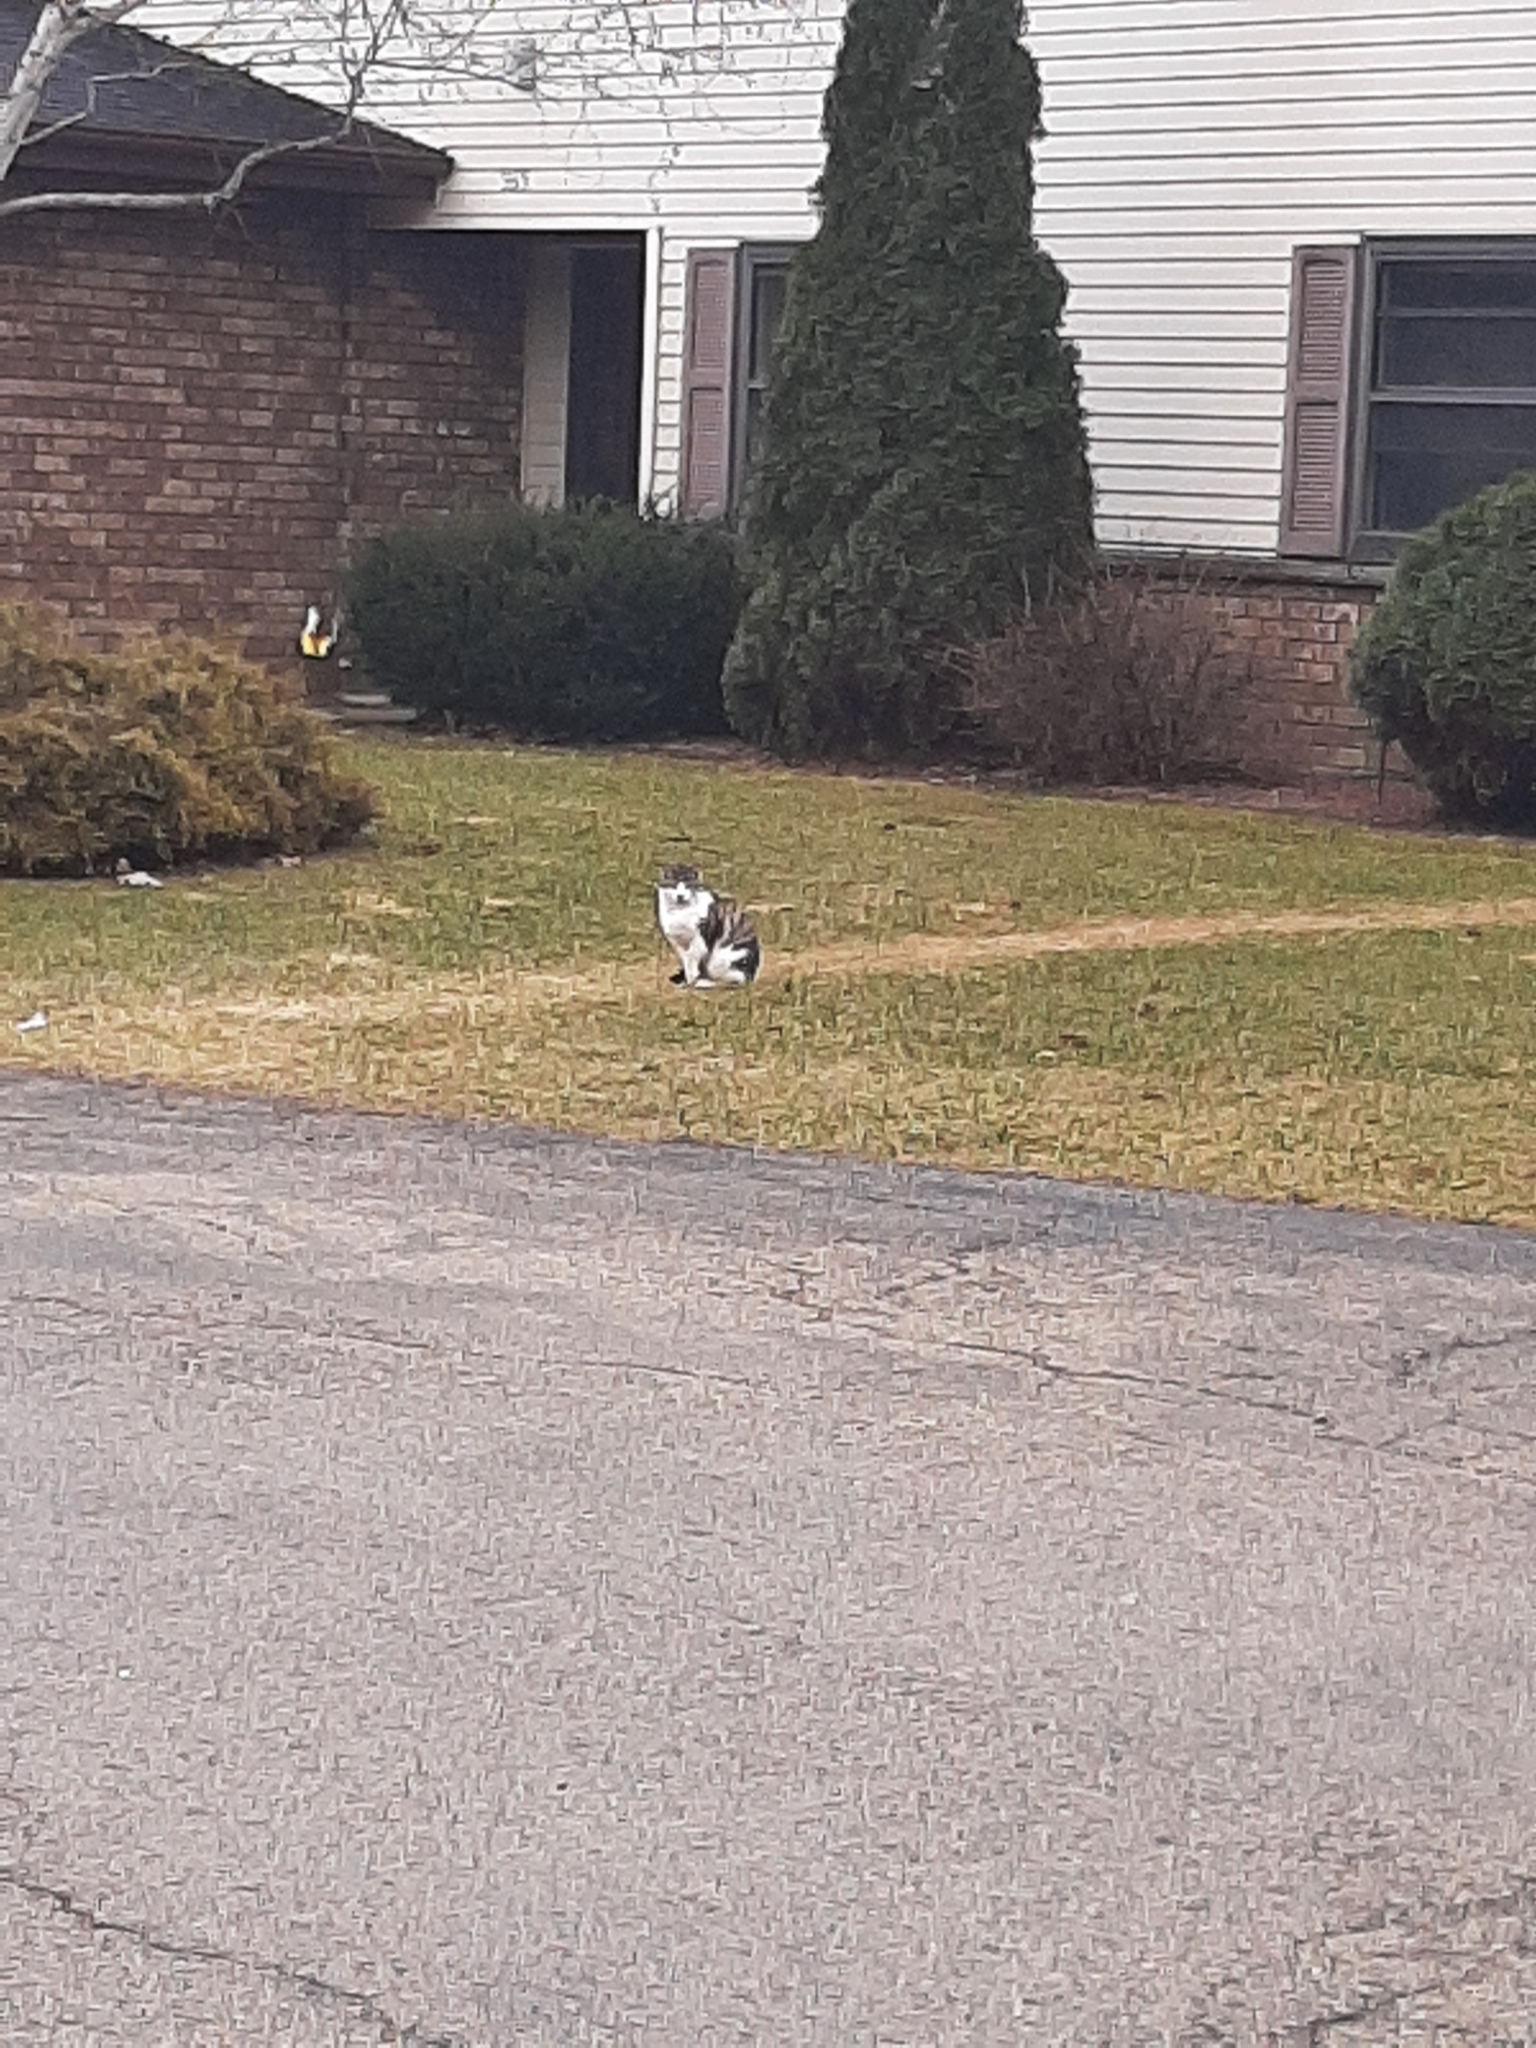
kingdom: Animalia
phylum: Chordata
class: Mammalia
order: Carnivora
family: Felidae
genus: Felis
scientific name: Felis catus
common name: Domestic cat
